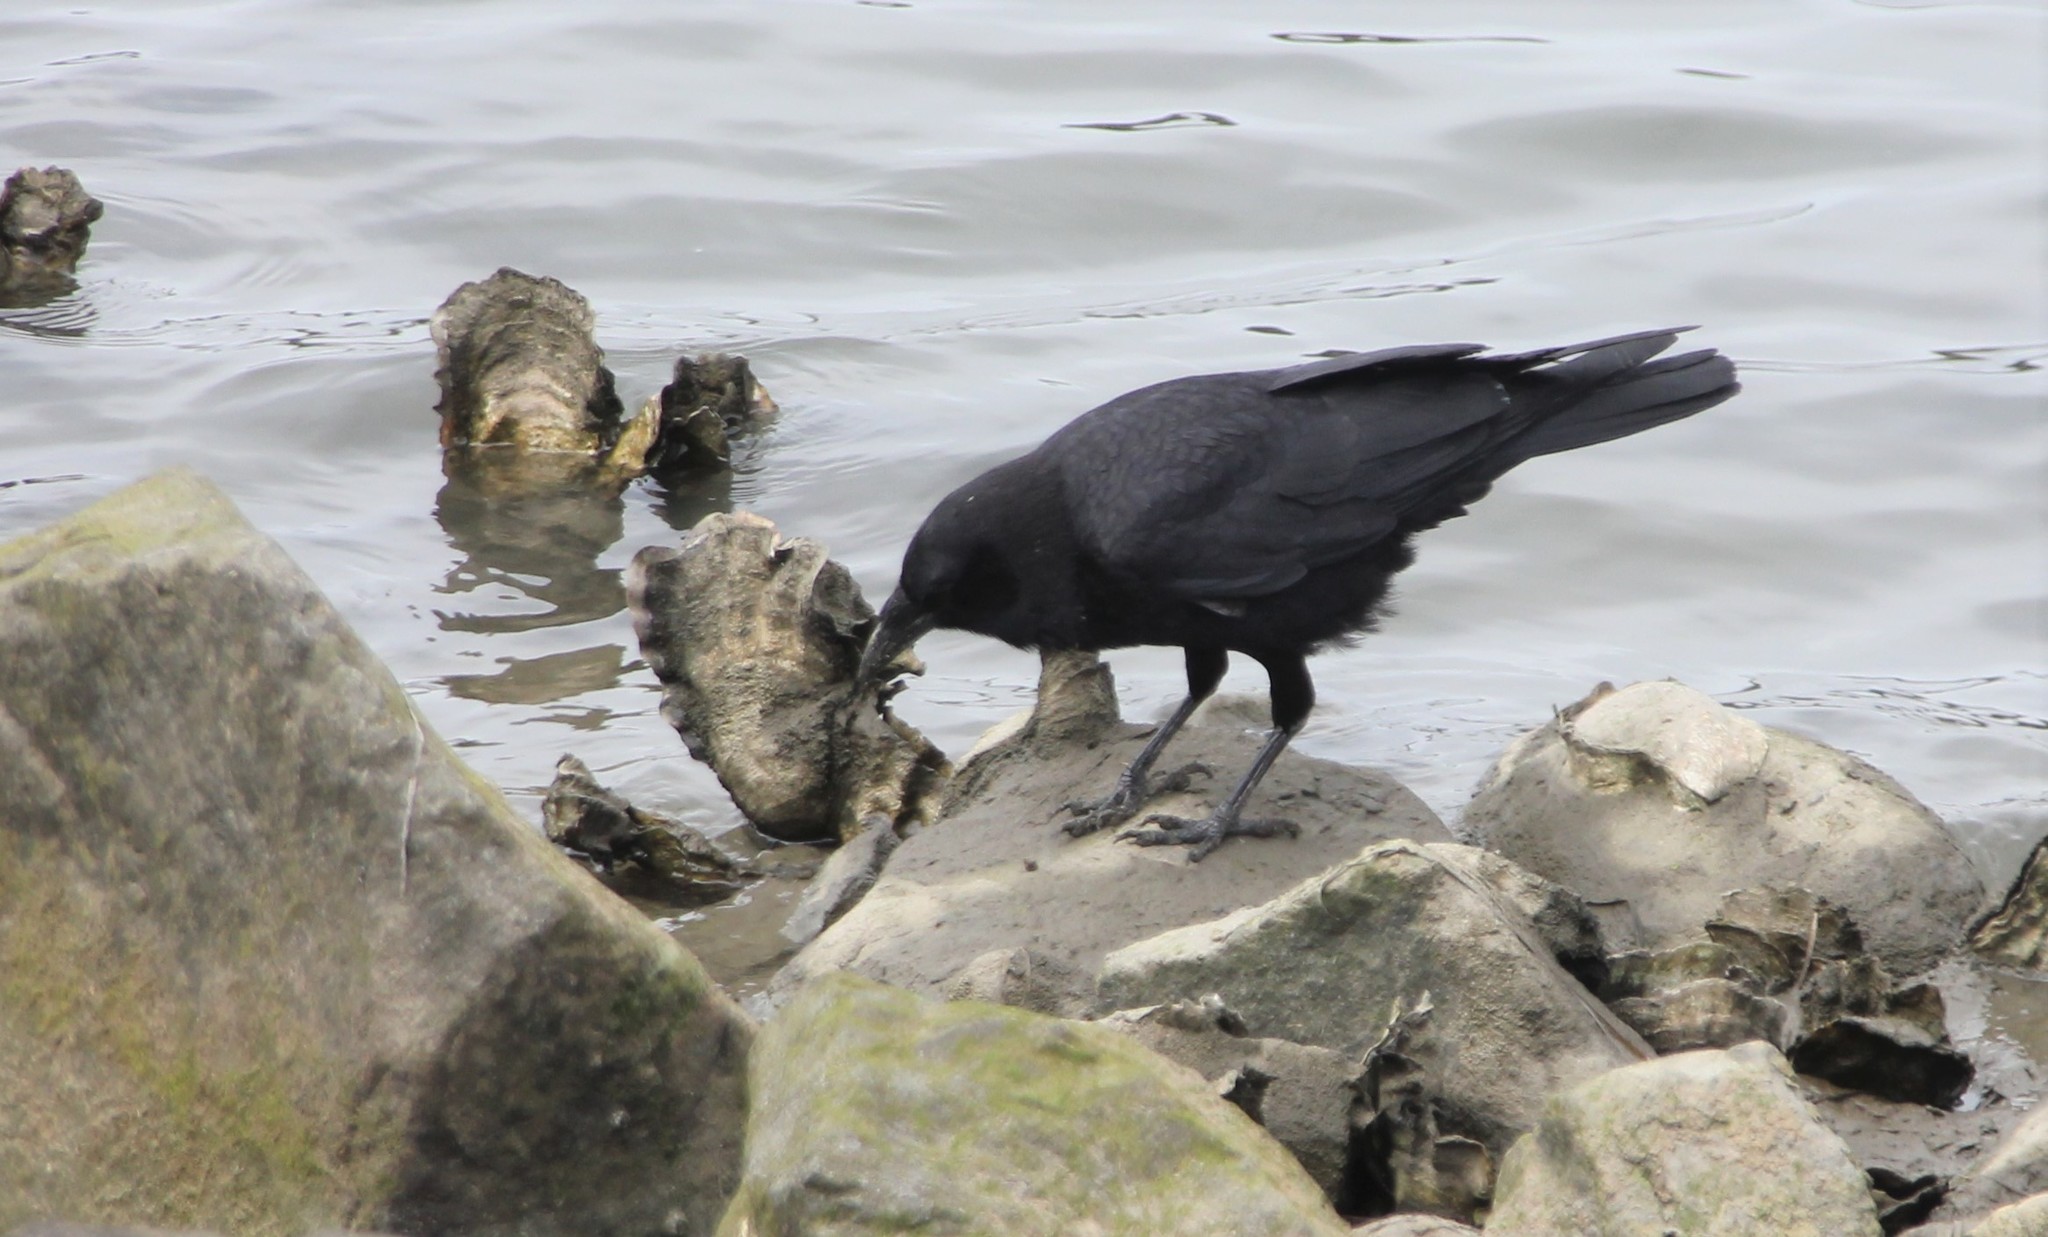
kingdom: Animalia
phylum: Chordata
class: Aves
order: Passeriformes
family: Corvidae
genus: Corvus
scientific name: Corvus brachyrhynchos
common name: American crow
